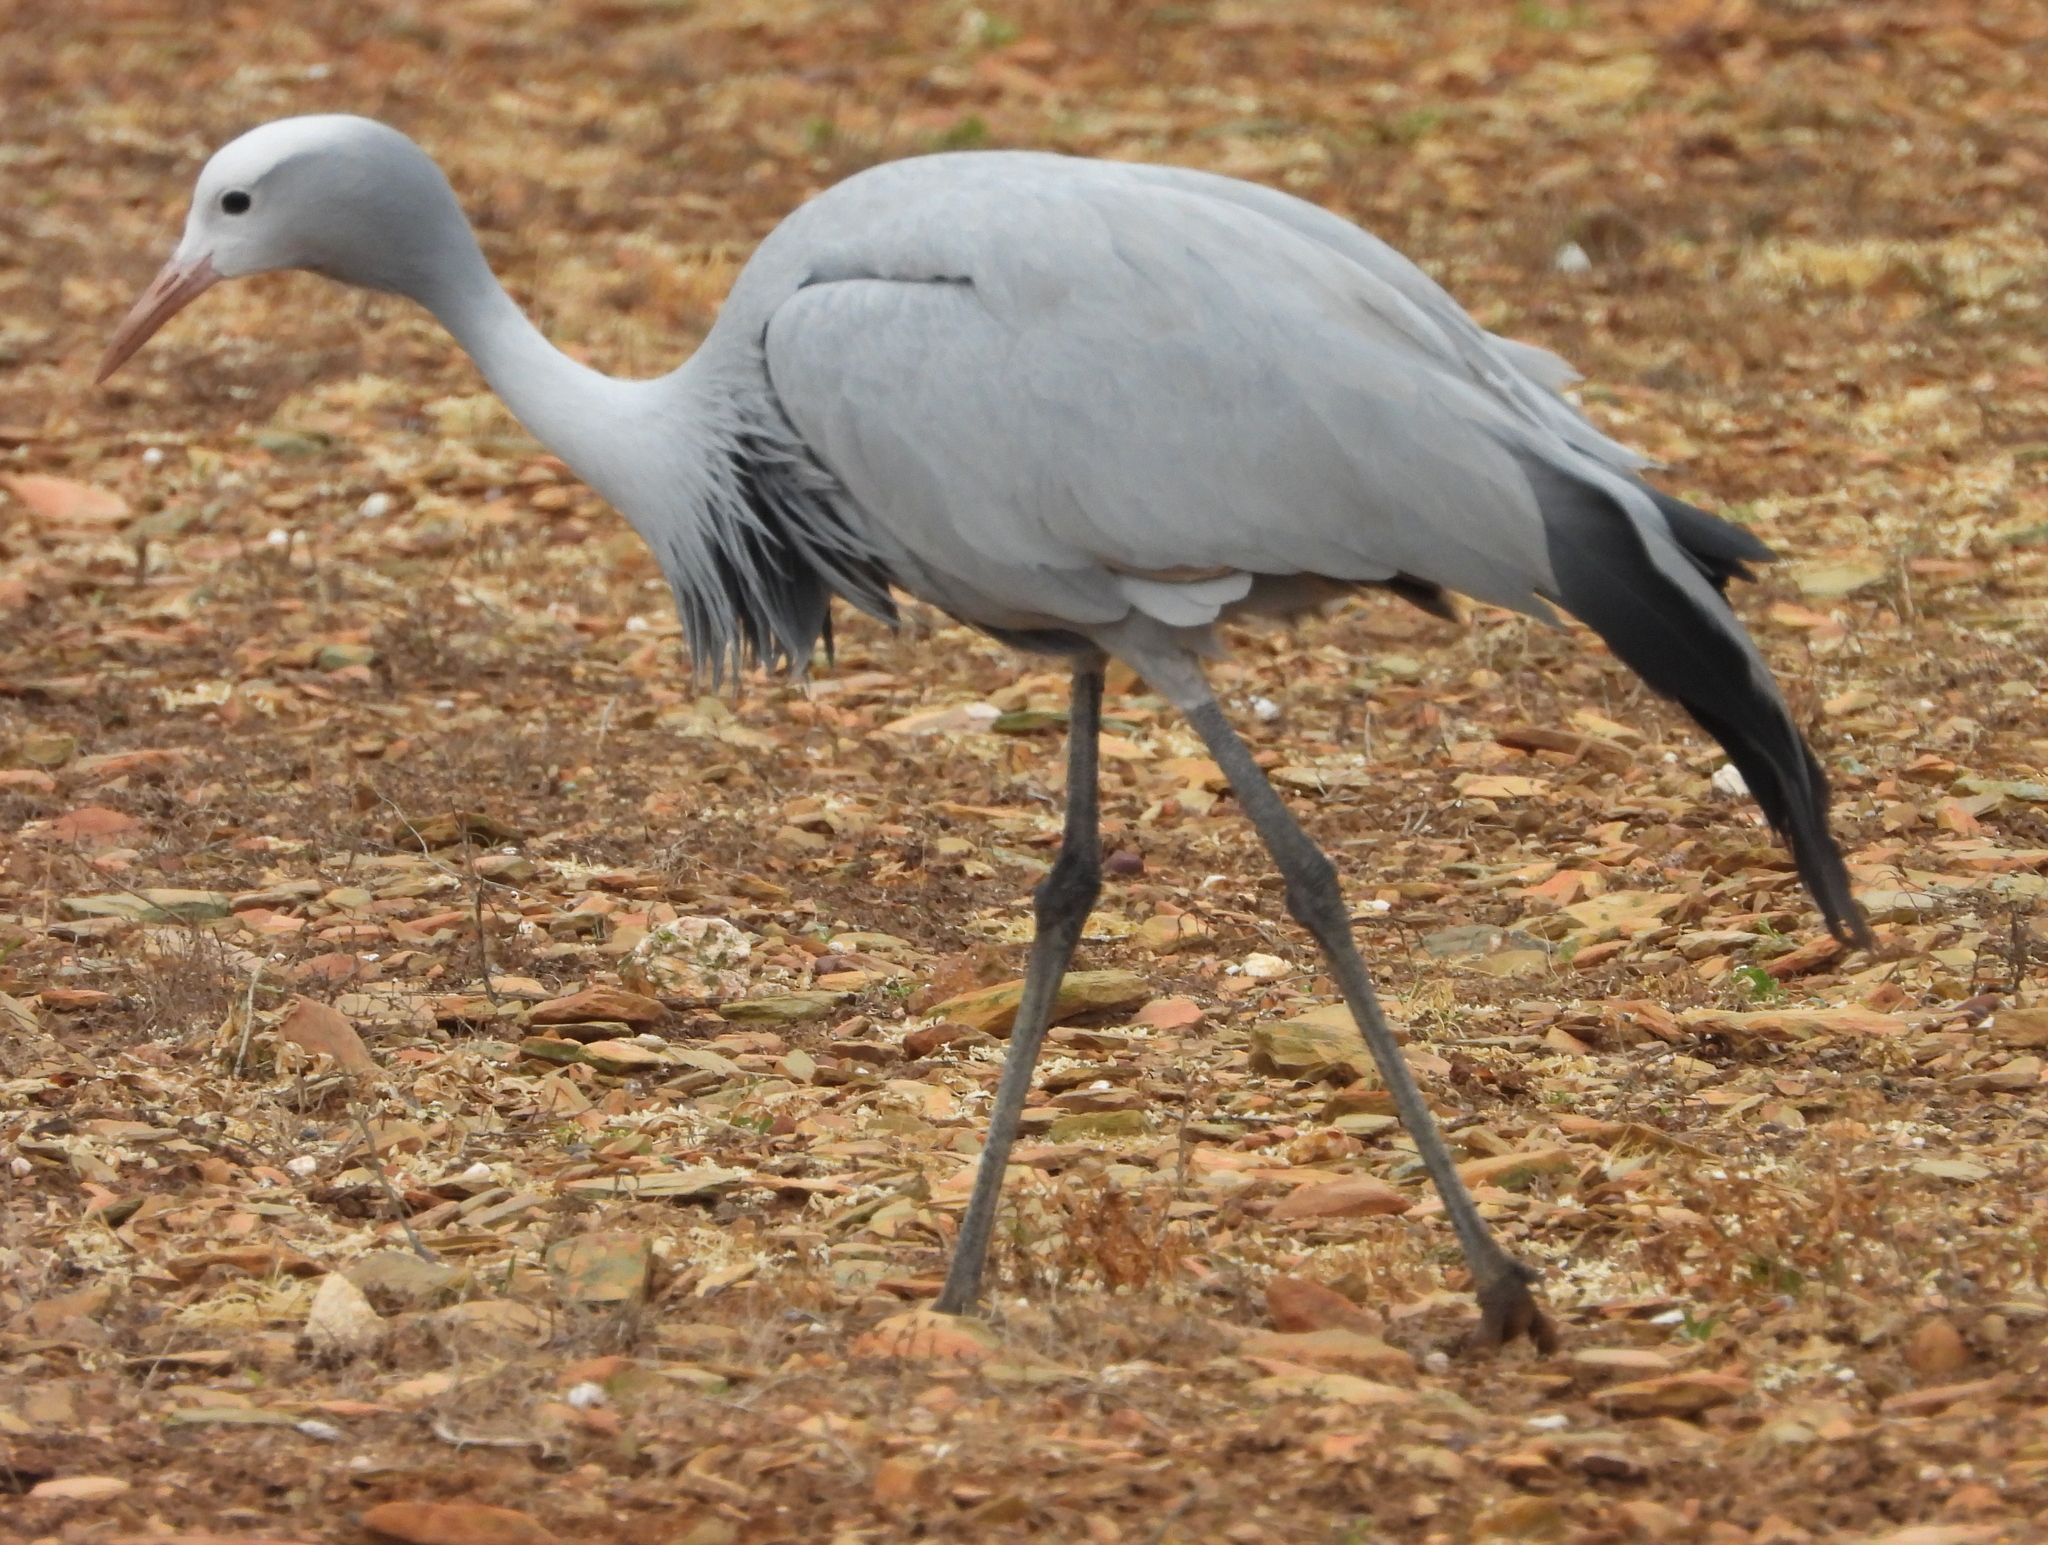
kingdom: Animalia
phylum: Chordata
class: Aves
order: Gruiformes
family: Gruidae
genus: Anthropoides
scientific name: Anthropoides paradiseus
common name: Blue crane
